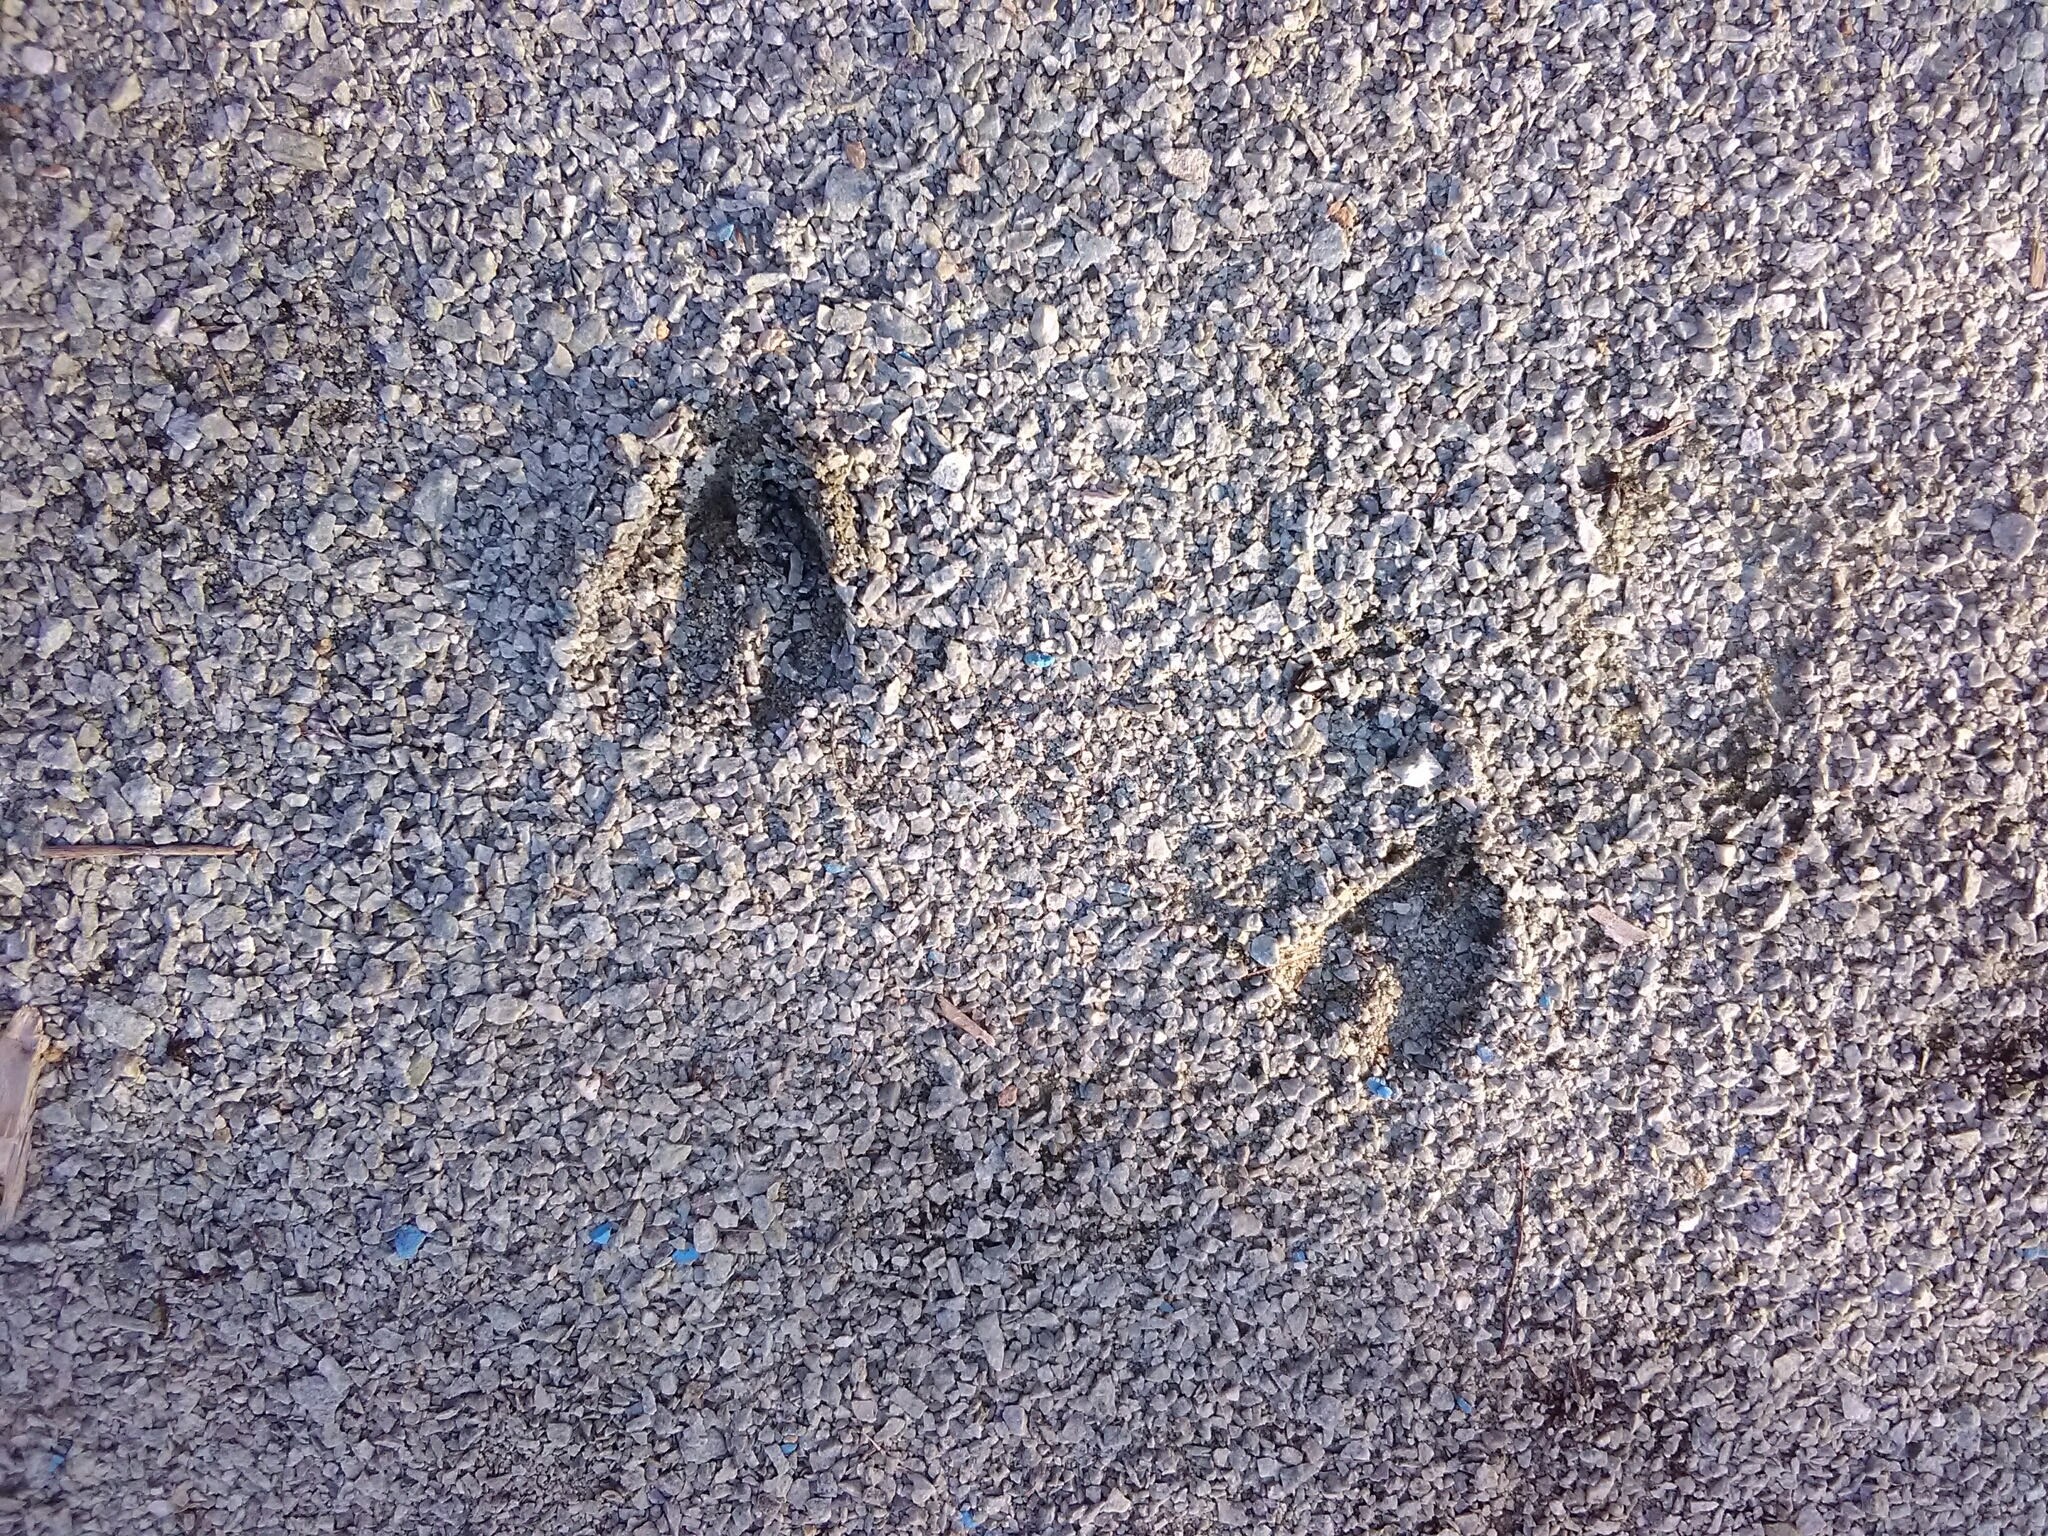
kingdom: Animalia
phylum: Chordata
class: Mammalia
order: Artiodactyla
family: Cervidae
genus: Odocoileus
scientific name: Odocoileus virginianus
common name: White-tailed deer
